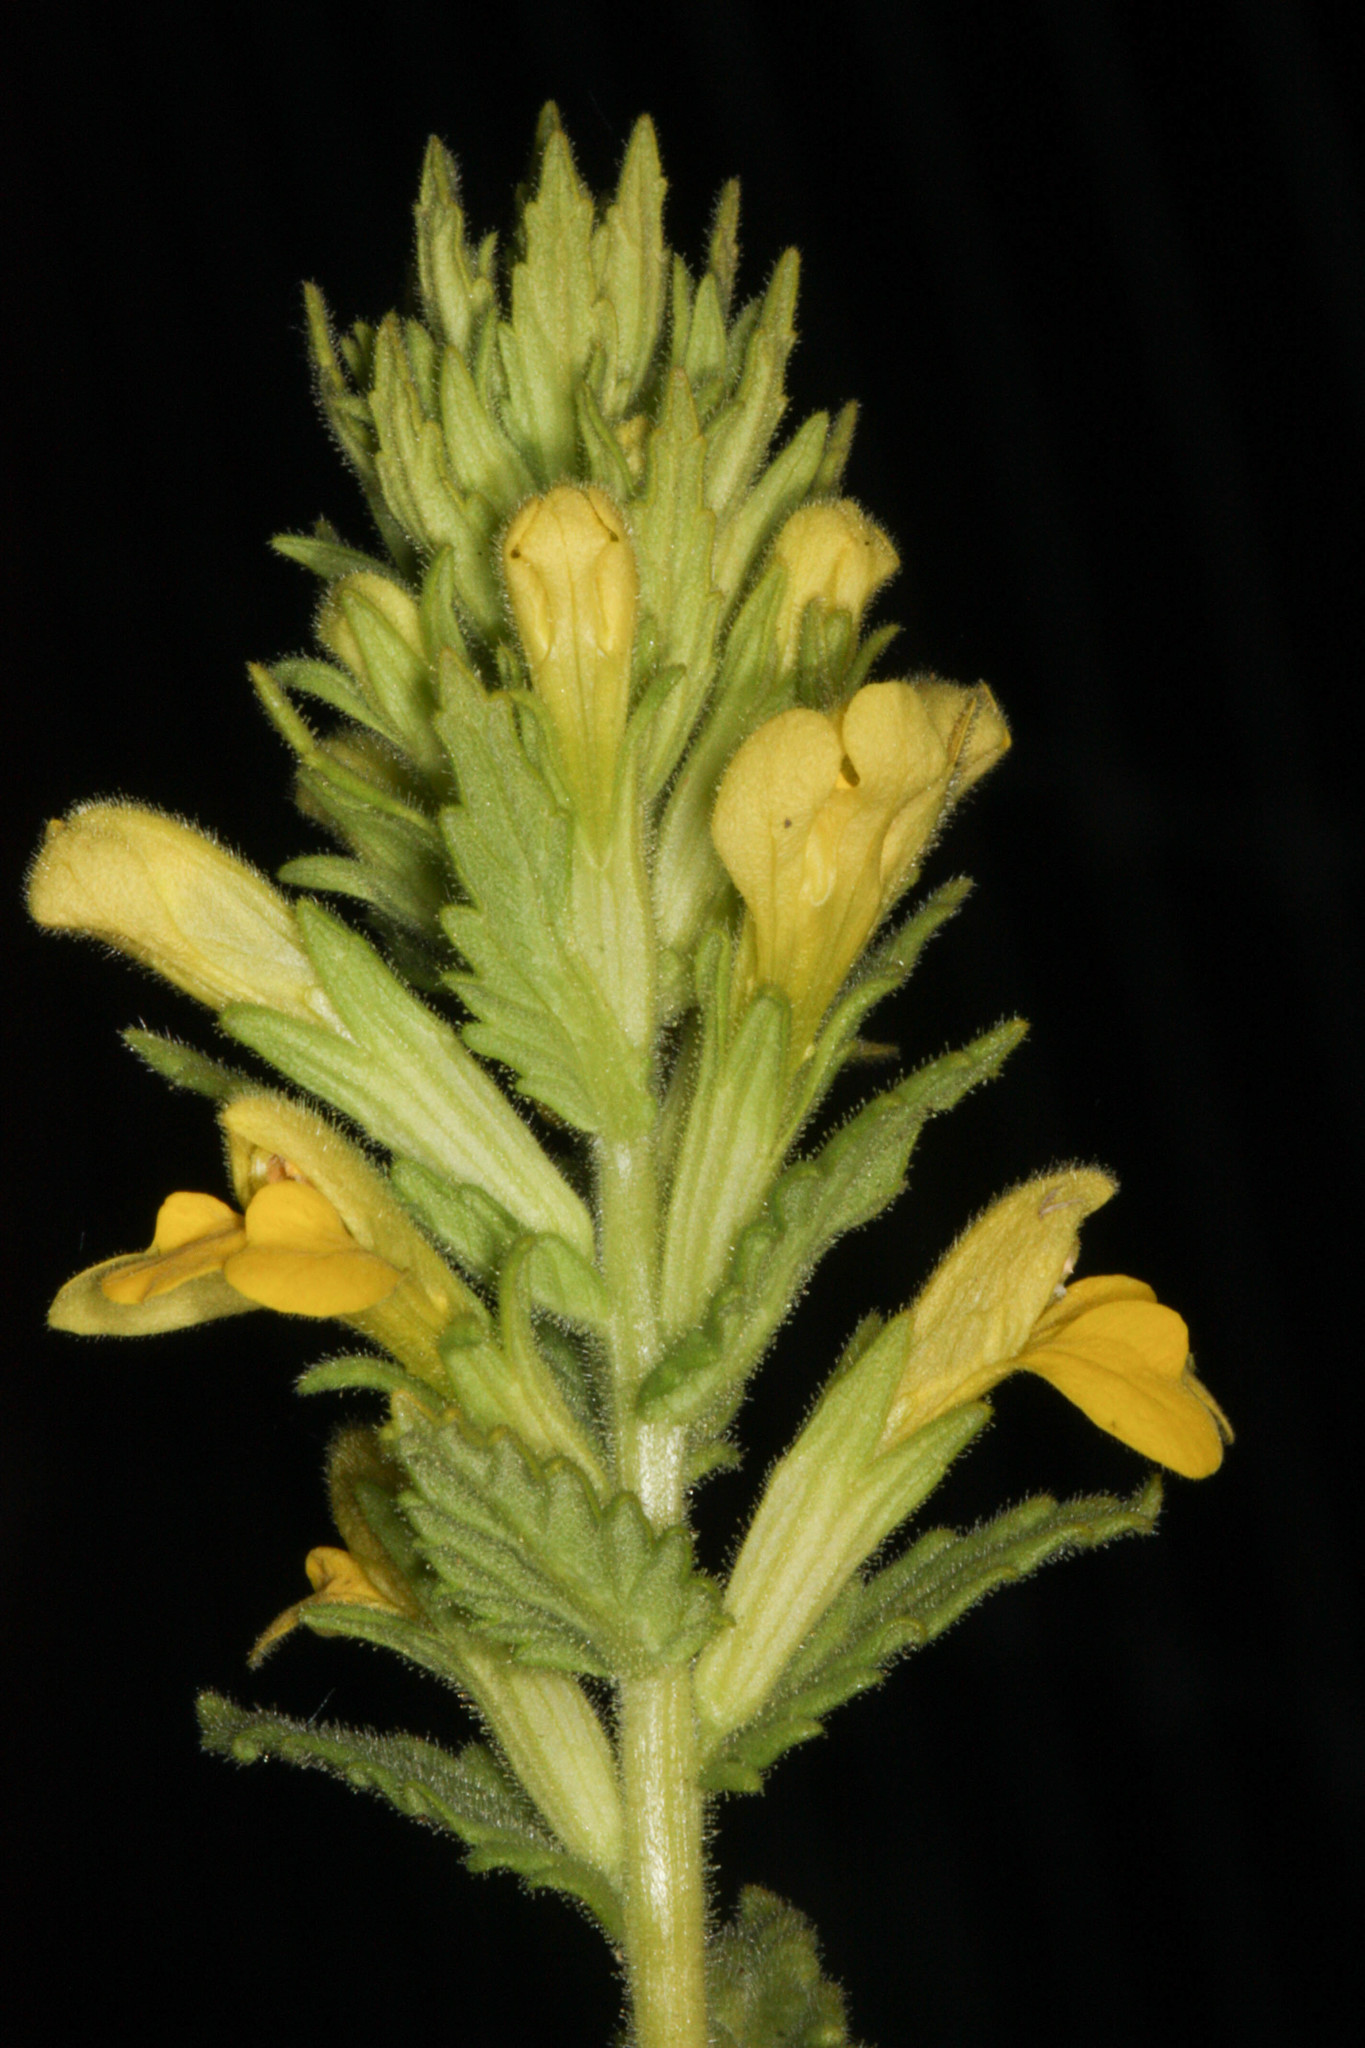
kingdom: Plantae
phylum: Tracheophyta
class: Magnoliopsida
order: Lamiales
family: Orobanchaceae
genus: Bellardia
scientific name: Bellardia viscosa
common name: Sticky parentucellia
